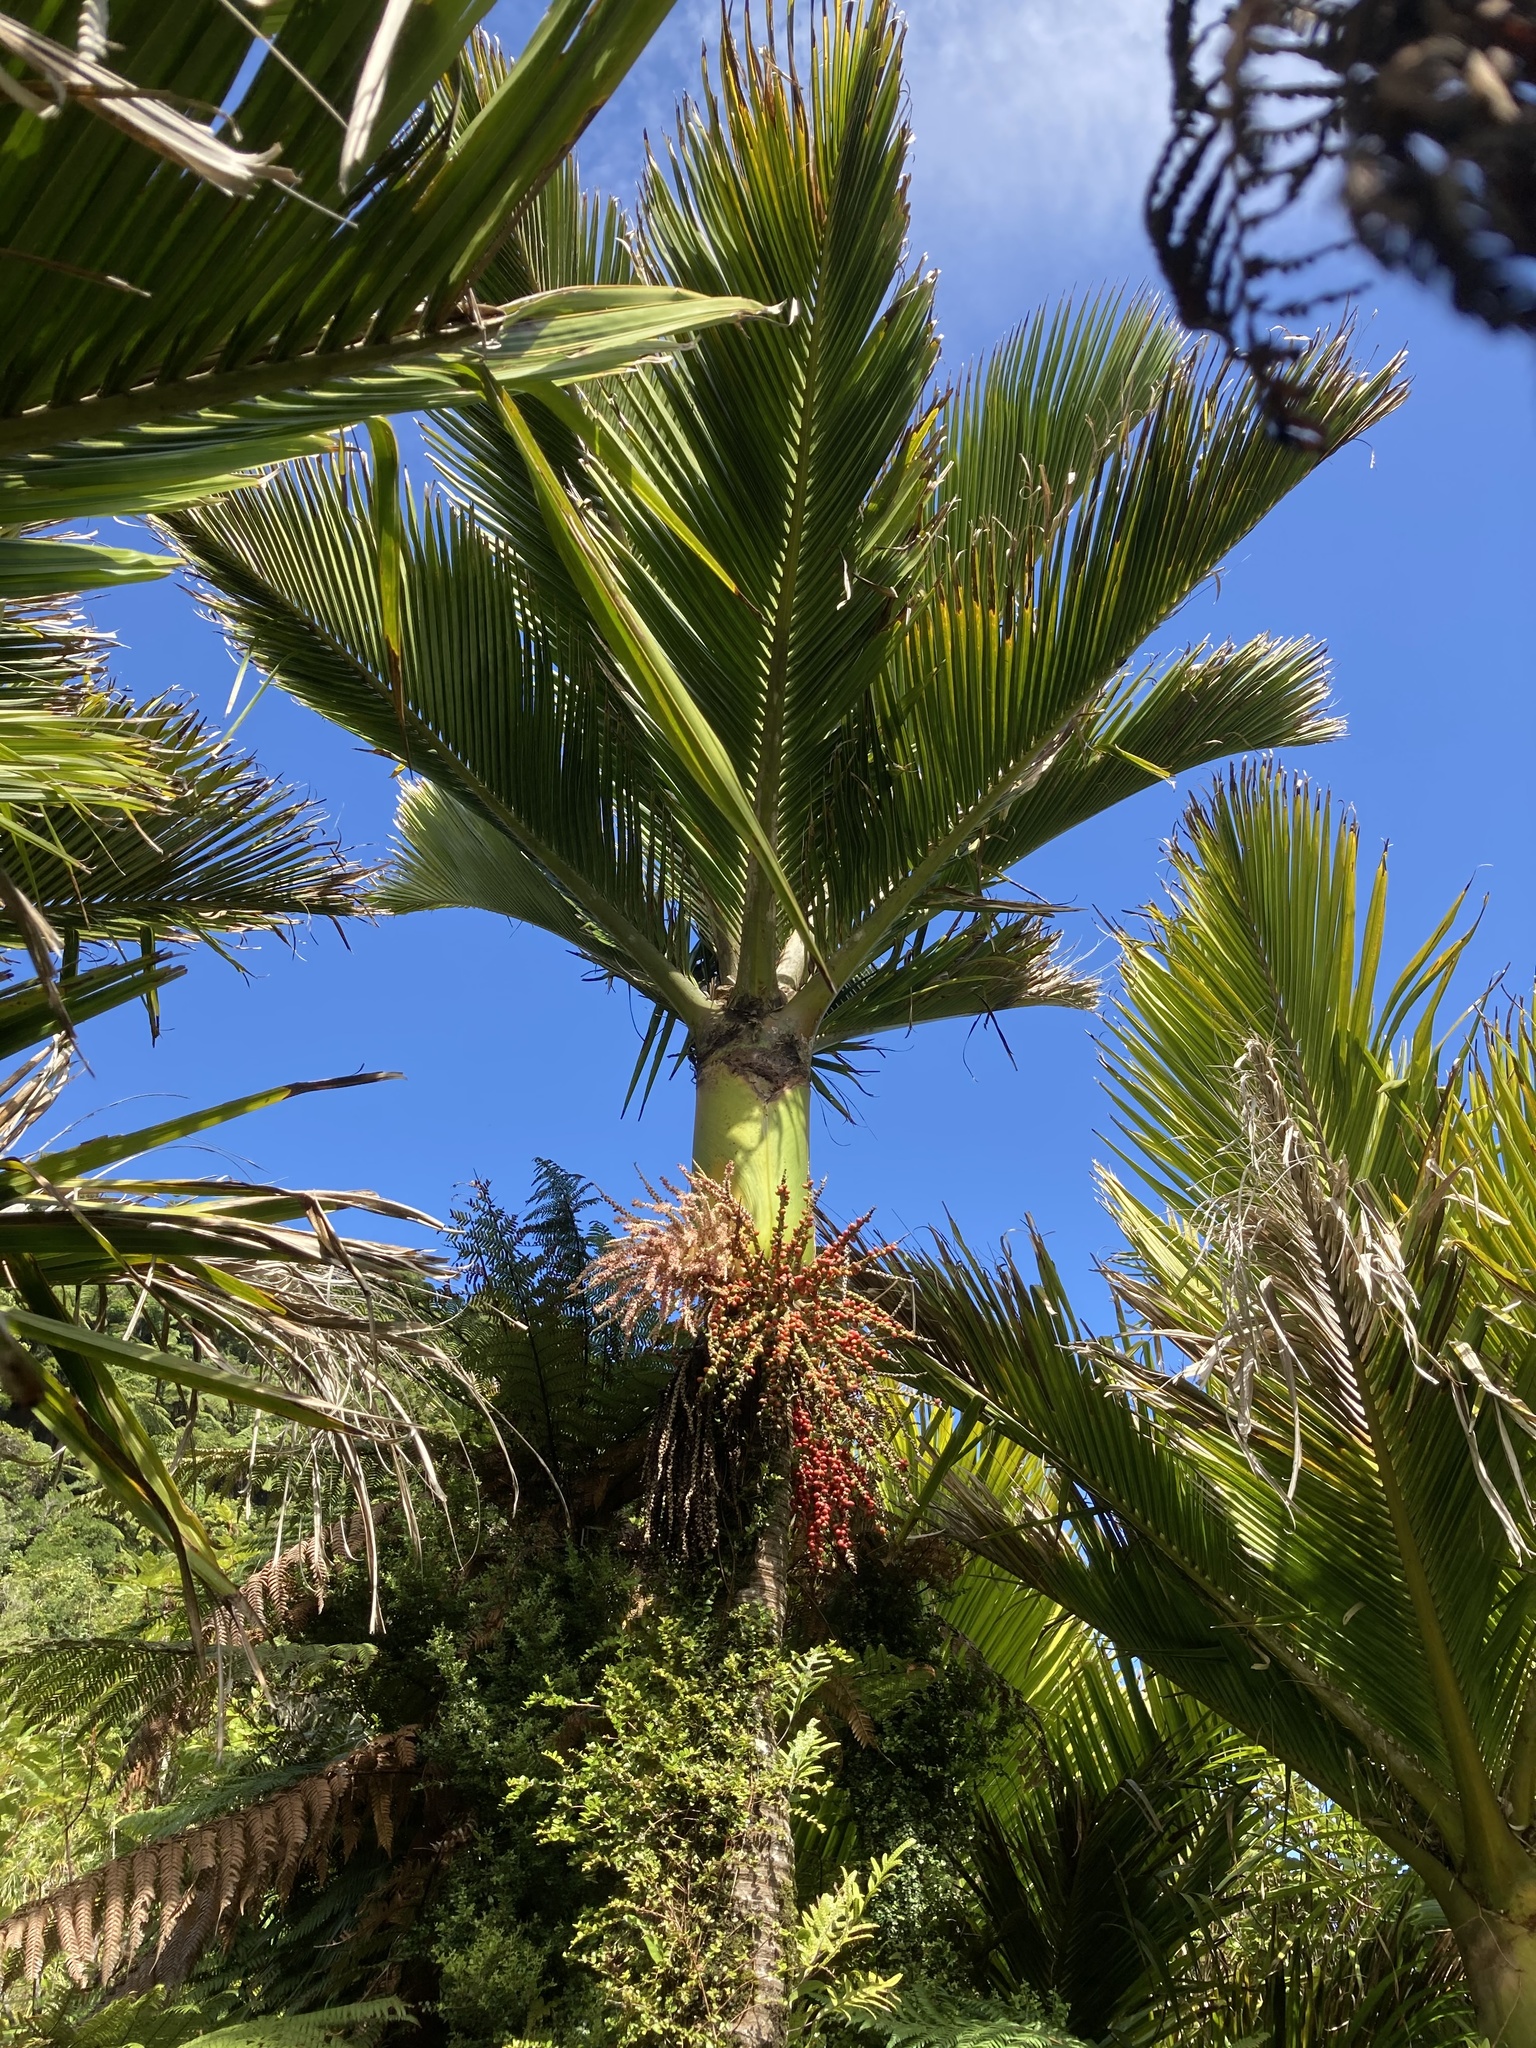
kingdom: Plantae
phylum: Tracheophyta
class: Liliopsida
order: Arecales
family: Arecaceae
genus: Rhopalostylis
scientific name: Rhopalostylis sapida
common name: Feather-duster palm
